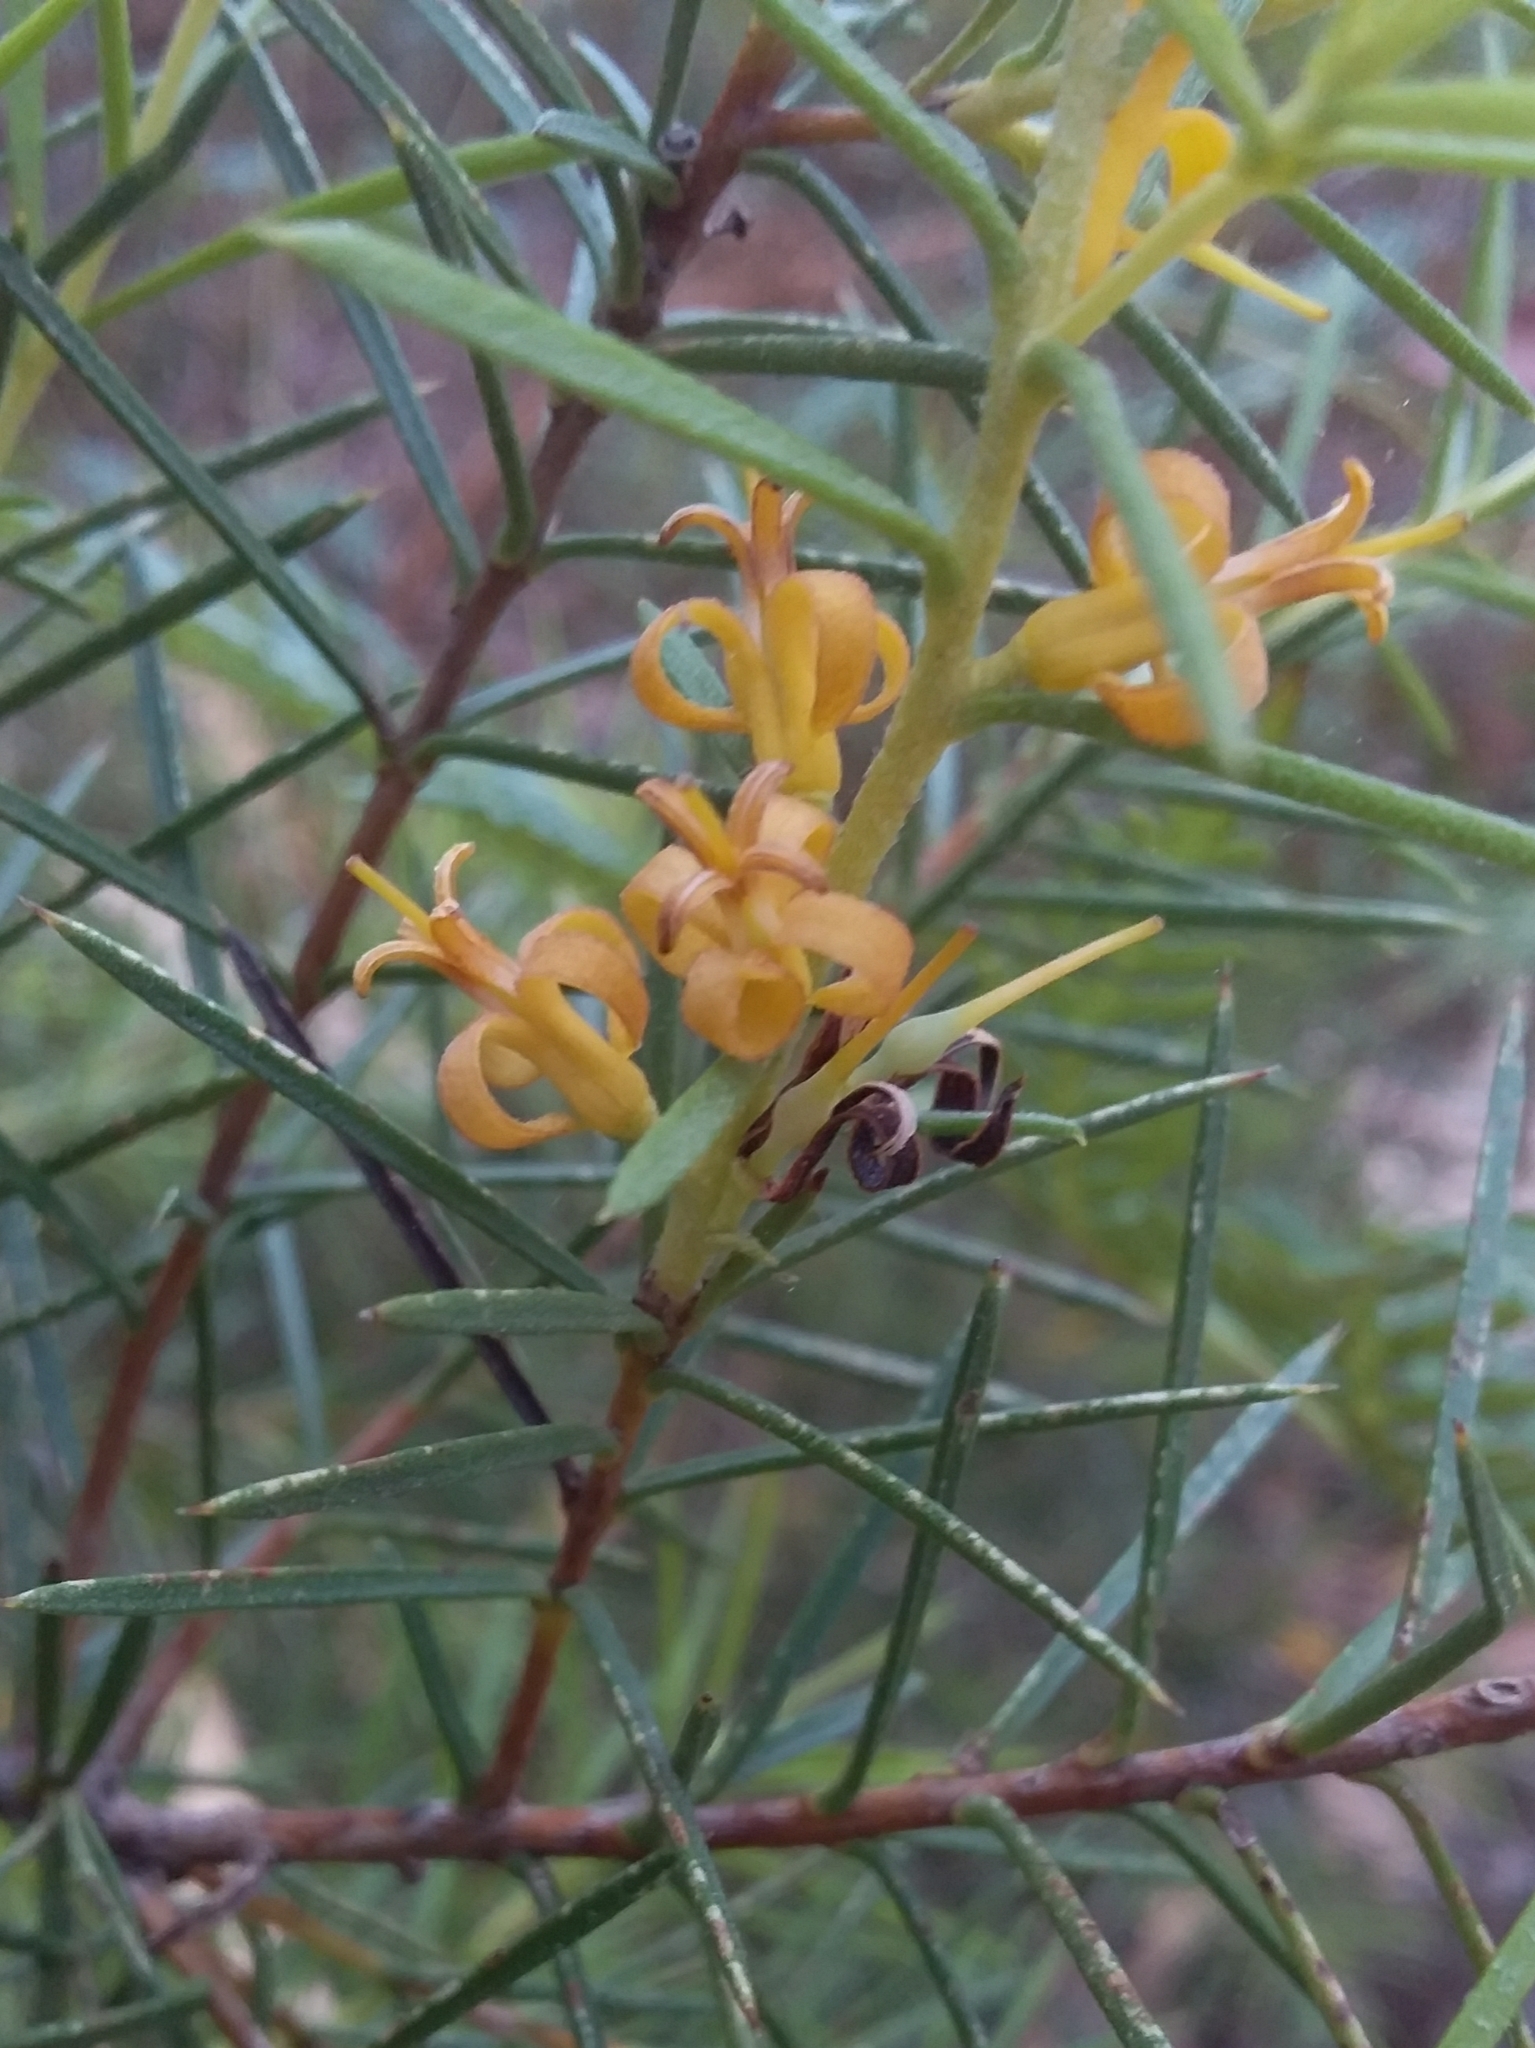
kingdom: Plantae
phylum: Tracheophyta
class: Magnoliopsida
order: Proteales
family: Proteaceae
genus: Persoonia
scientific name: Persoonia juniperina
